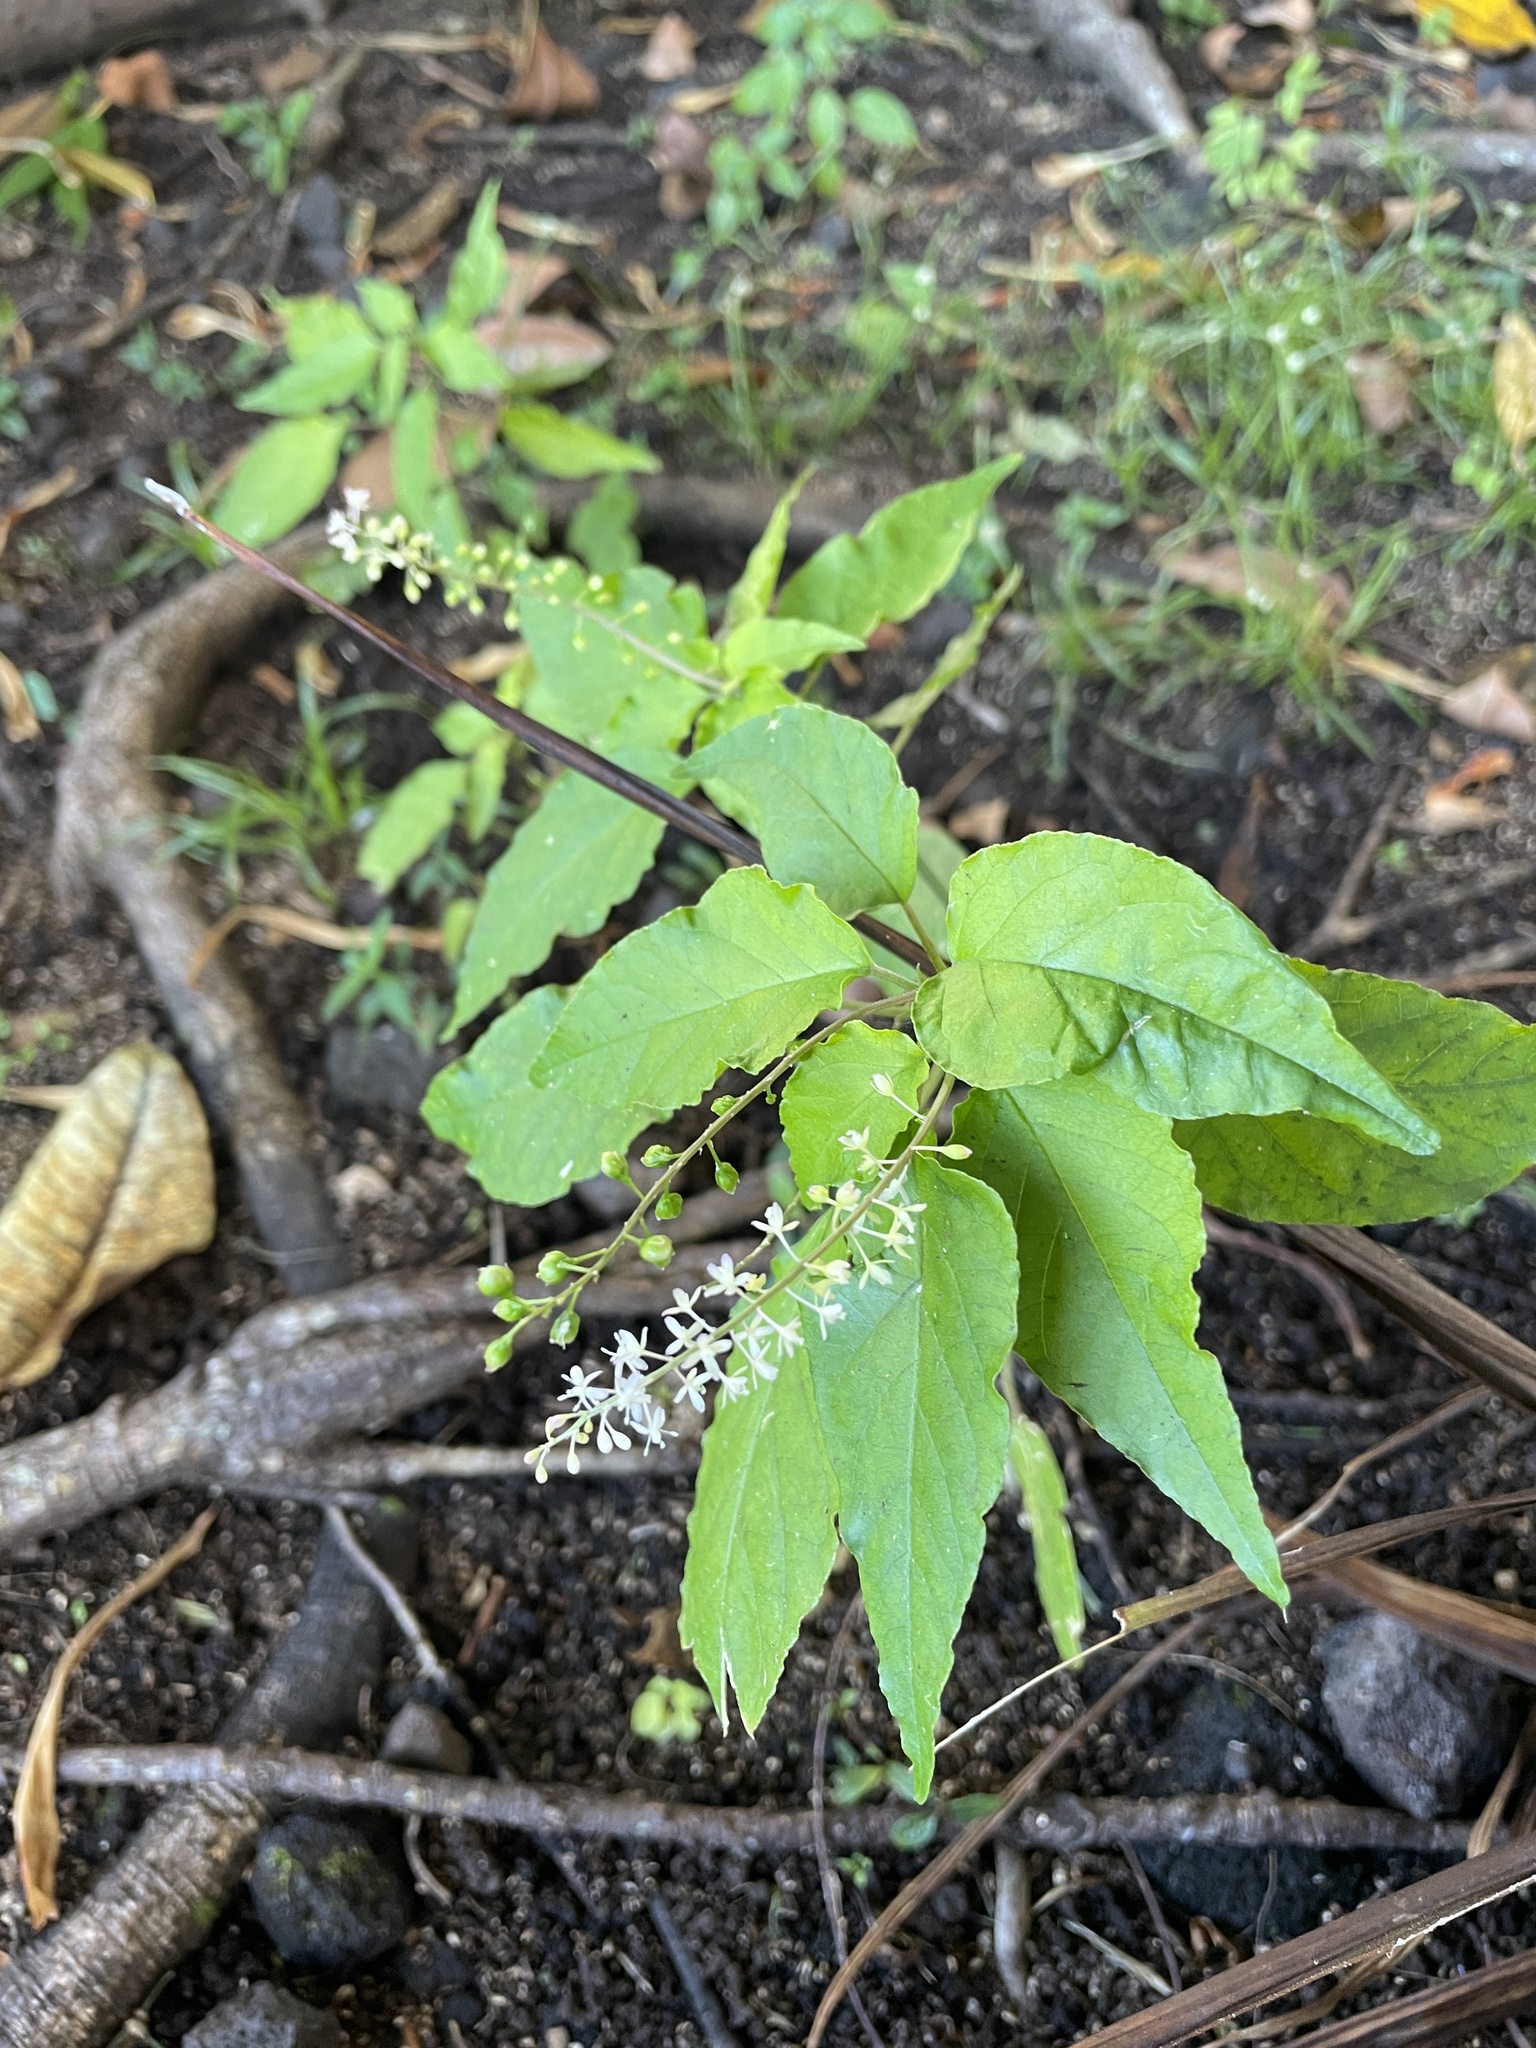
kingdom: Plantae
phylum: Tracheophyta
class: Magnoliopsida
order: Caryophyllales
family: Phytolaccaceae
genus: Rivina
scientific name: Rivina humilis
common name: Rougeplant
